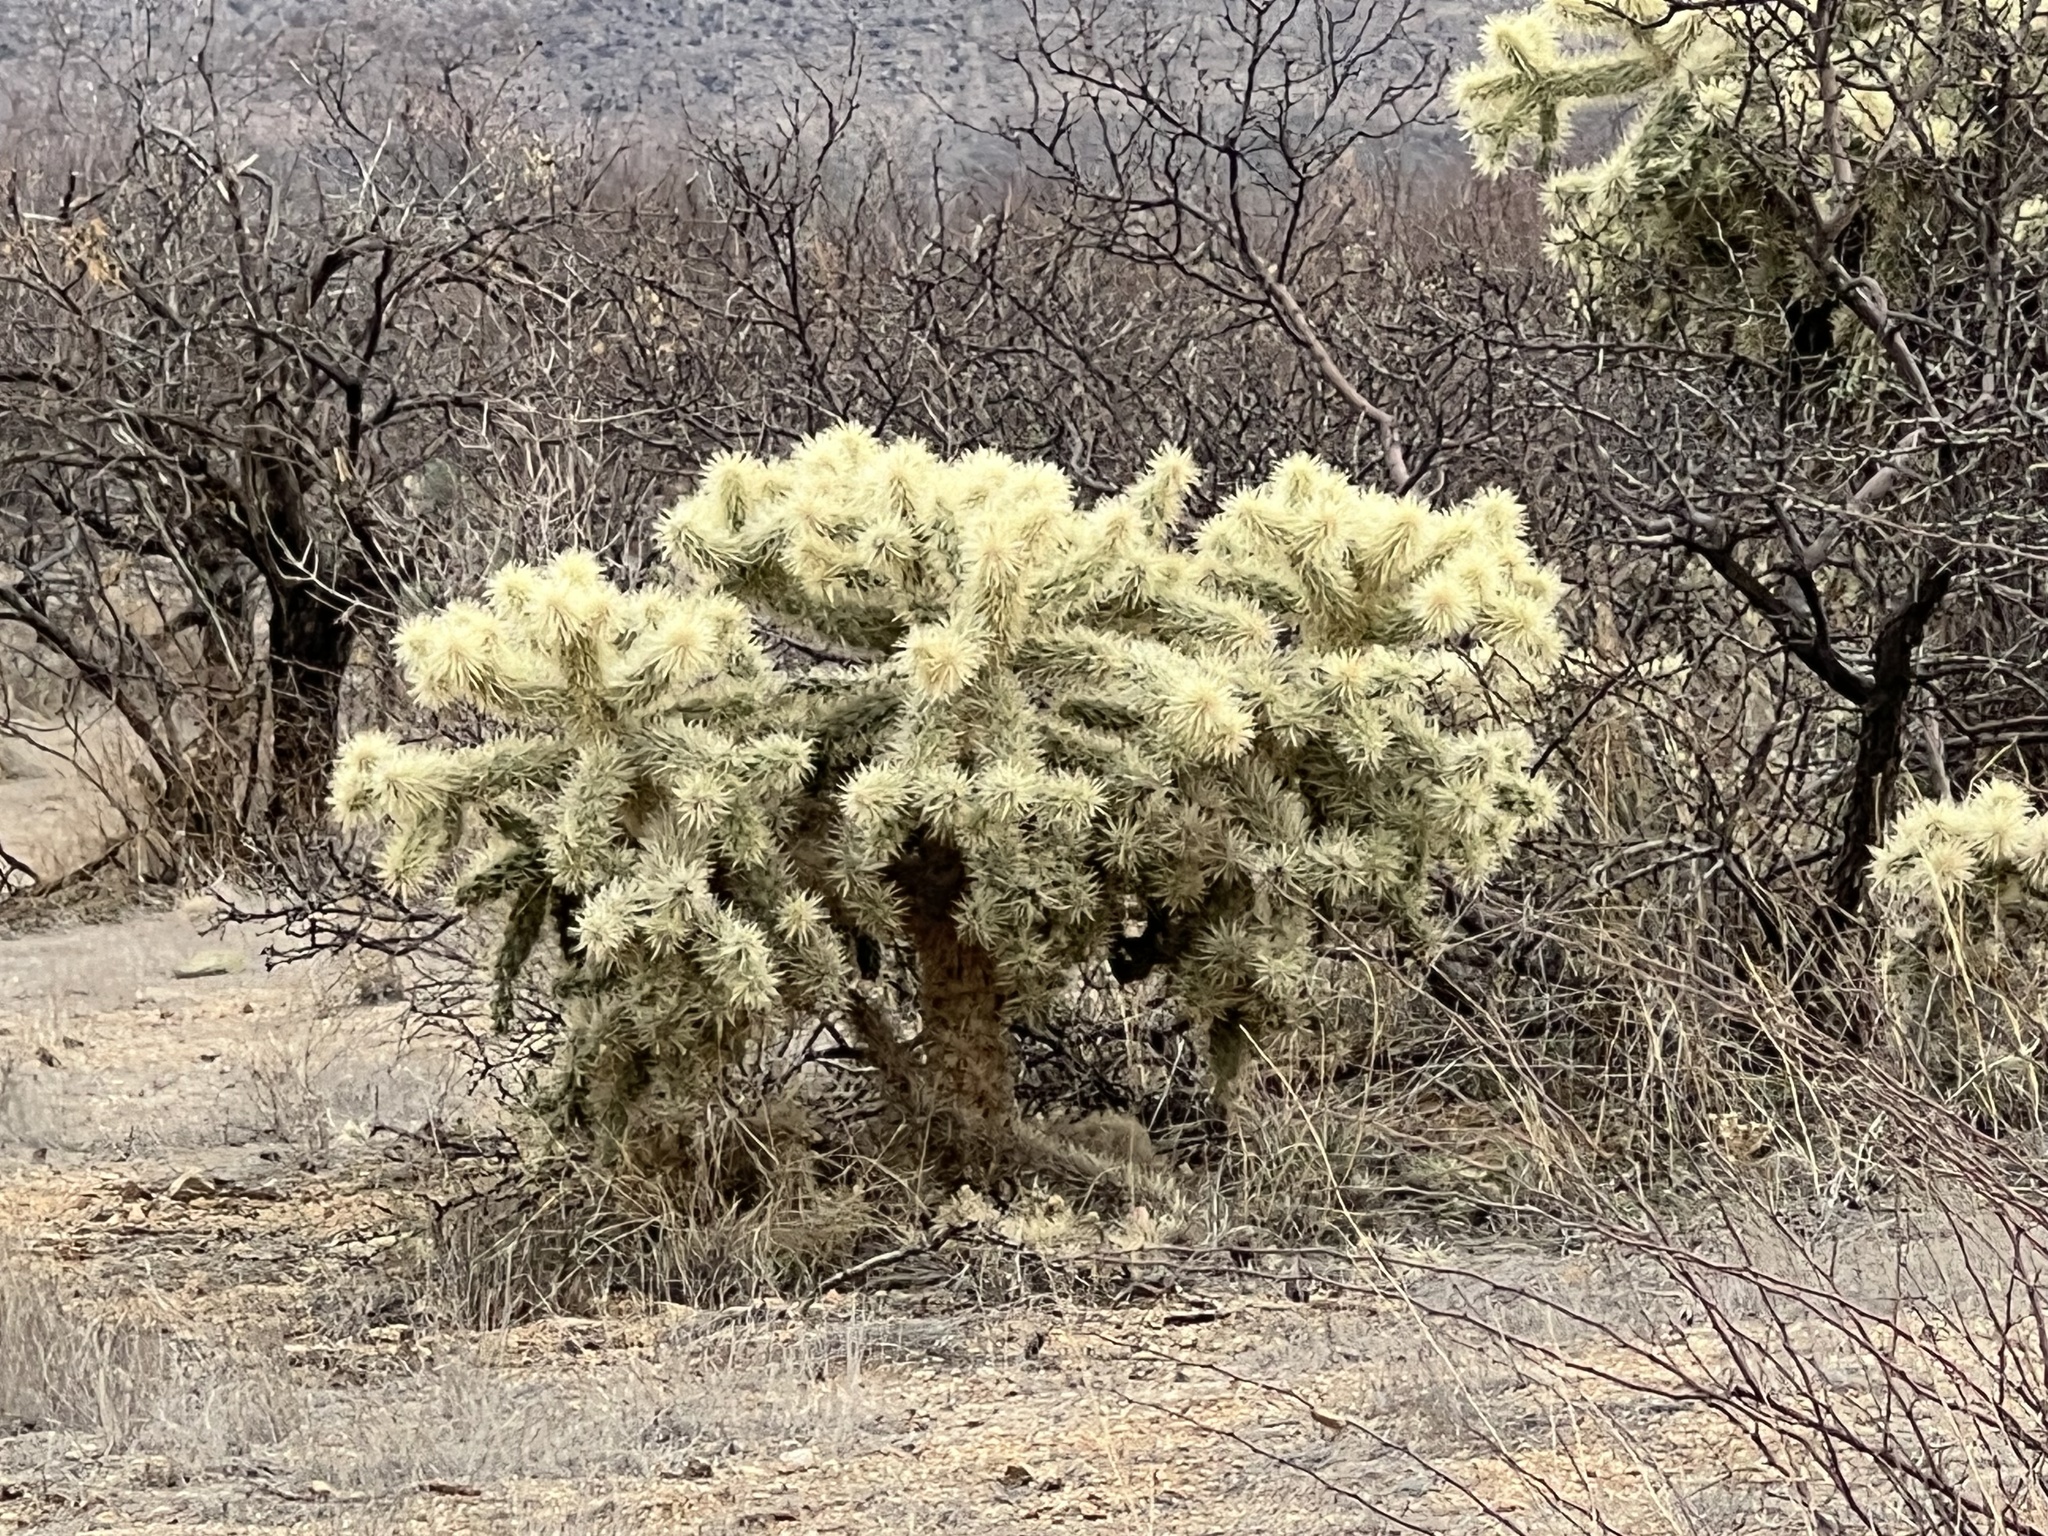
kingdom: Plantae
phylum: Tracheophyta
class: Magnoliopsida
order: Caryophyllales
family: Cactaceae
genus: Cylindropuntia
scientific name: Cylindropuntia fulgida
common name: Jumping cholla
